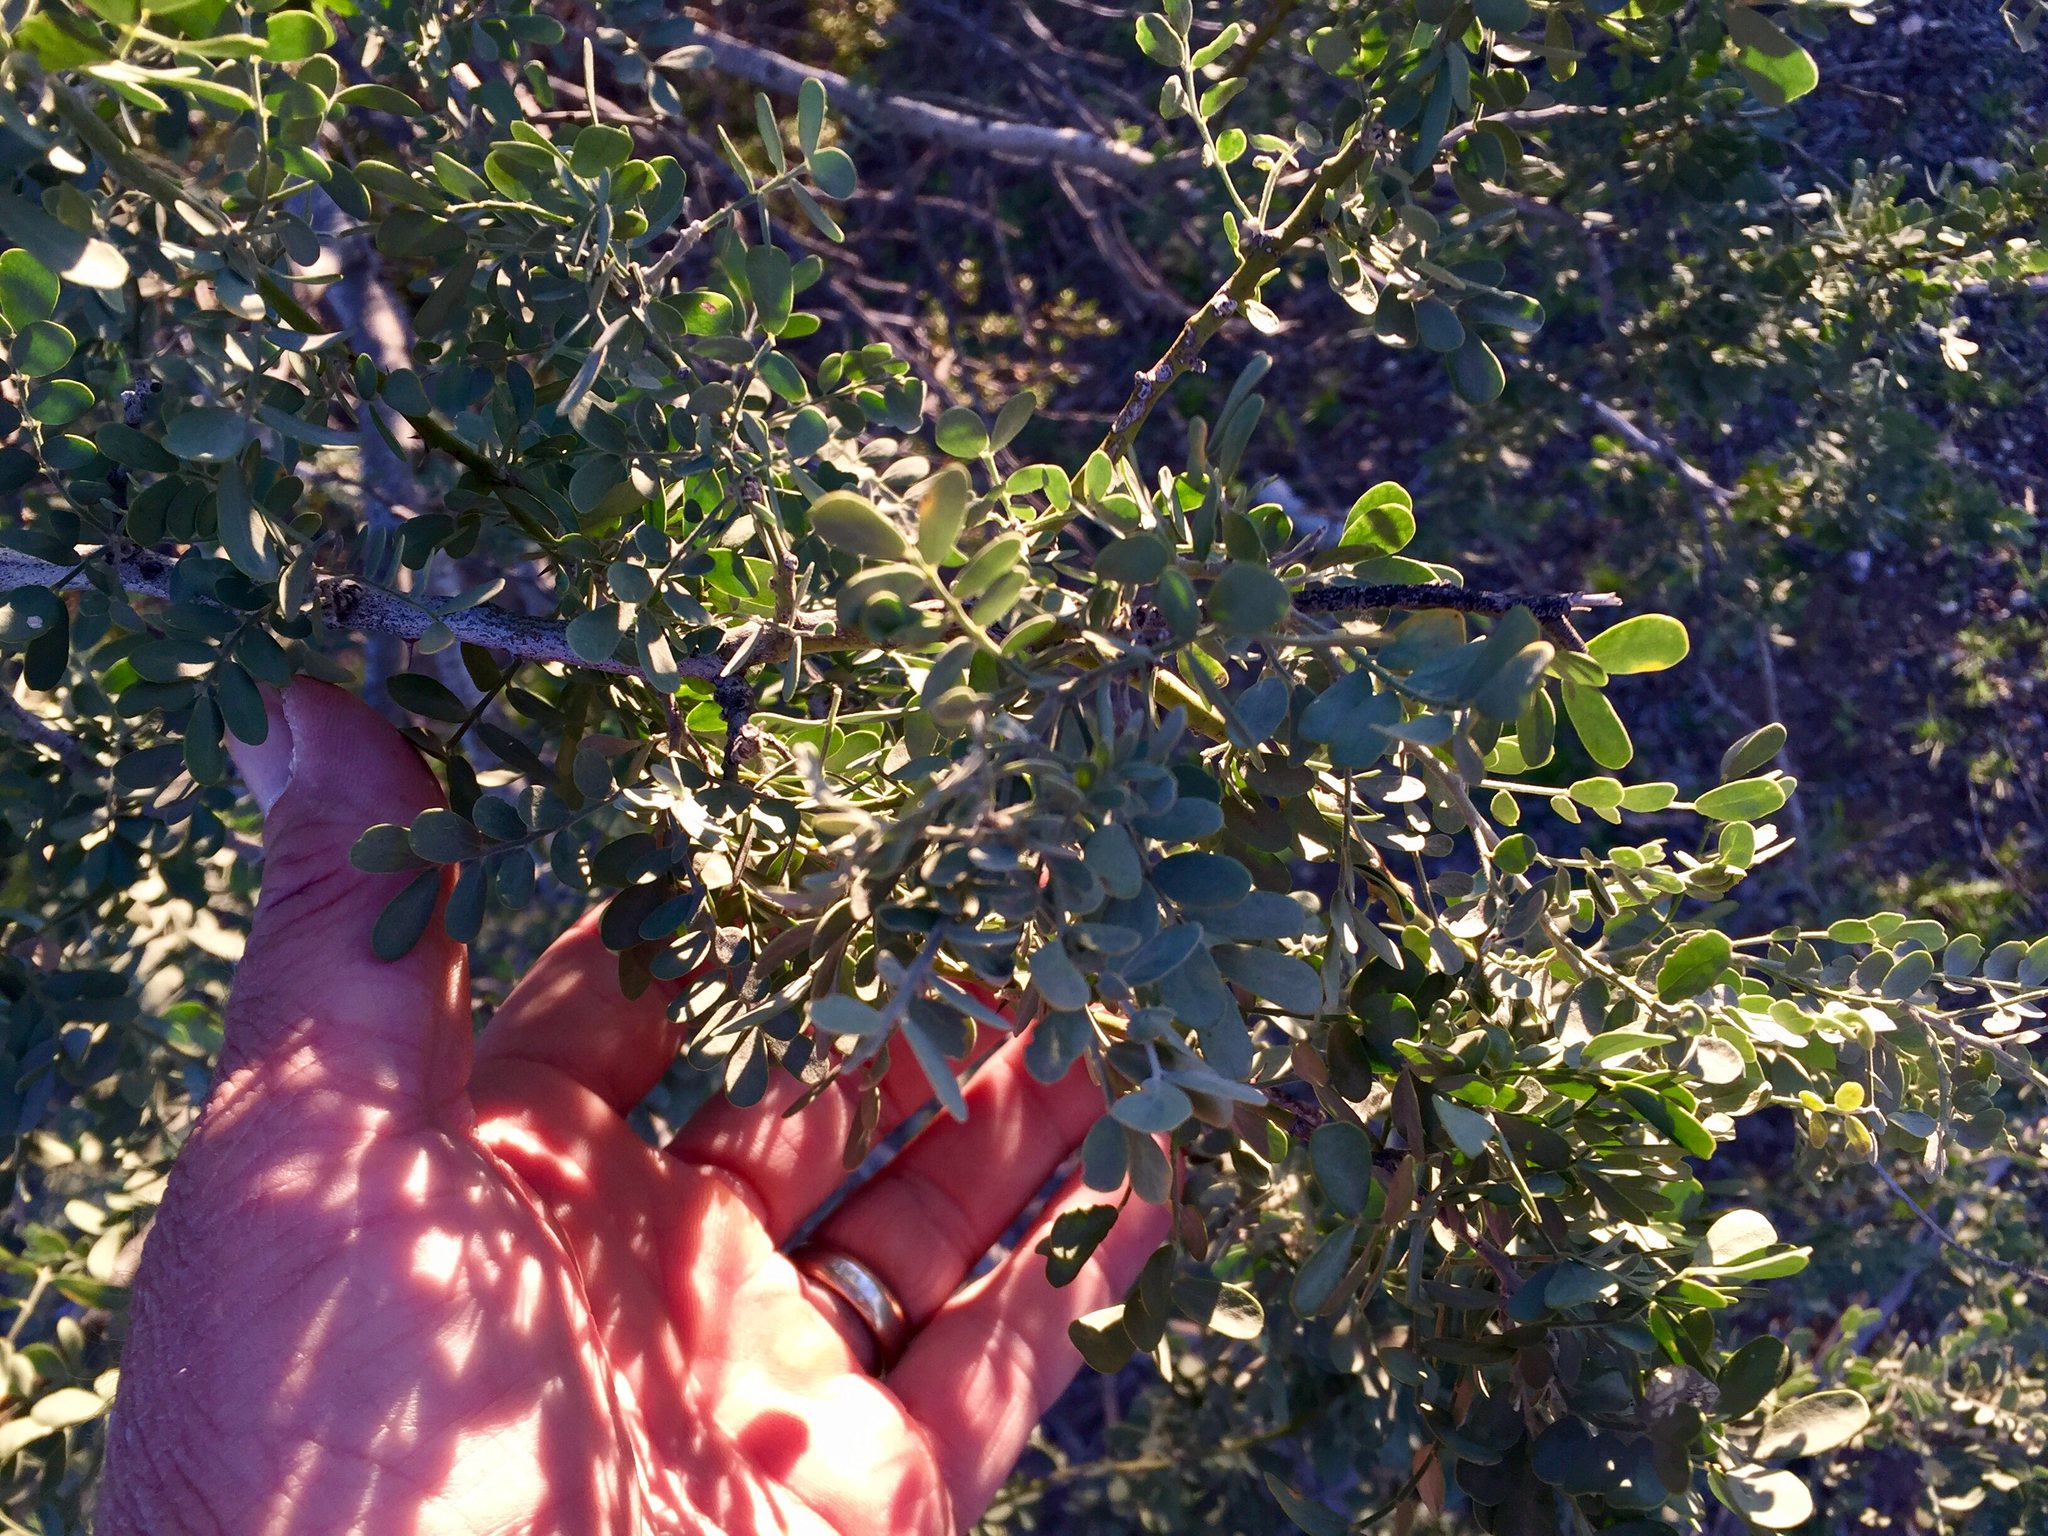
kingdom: Plantae
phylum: Tracheophyta
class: Magnoliopsida
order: Fabales
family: Fabaceae
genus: Olneya
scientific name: Olneya tesota
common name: Desert ironwood
